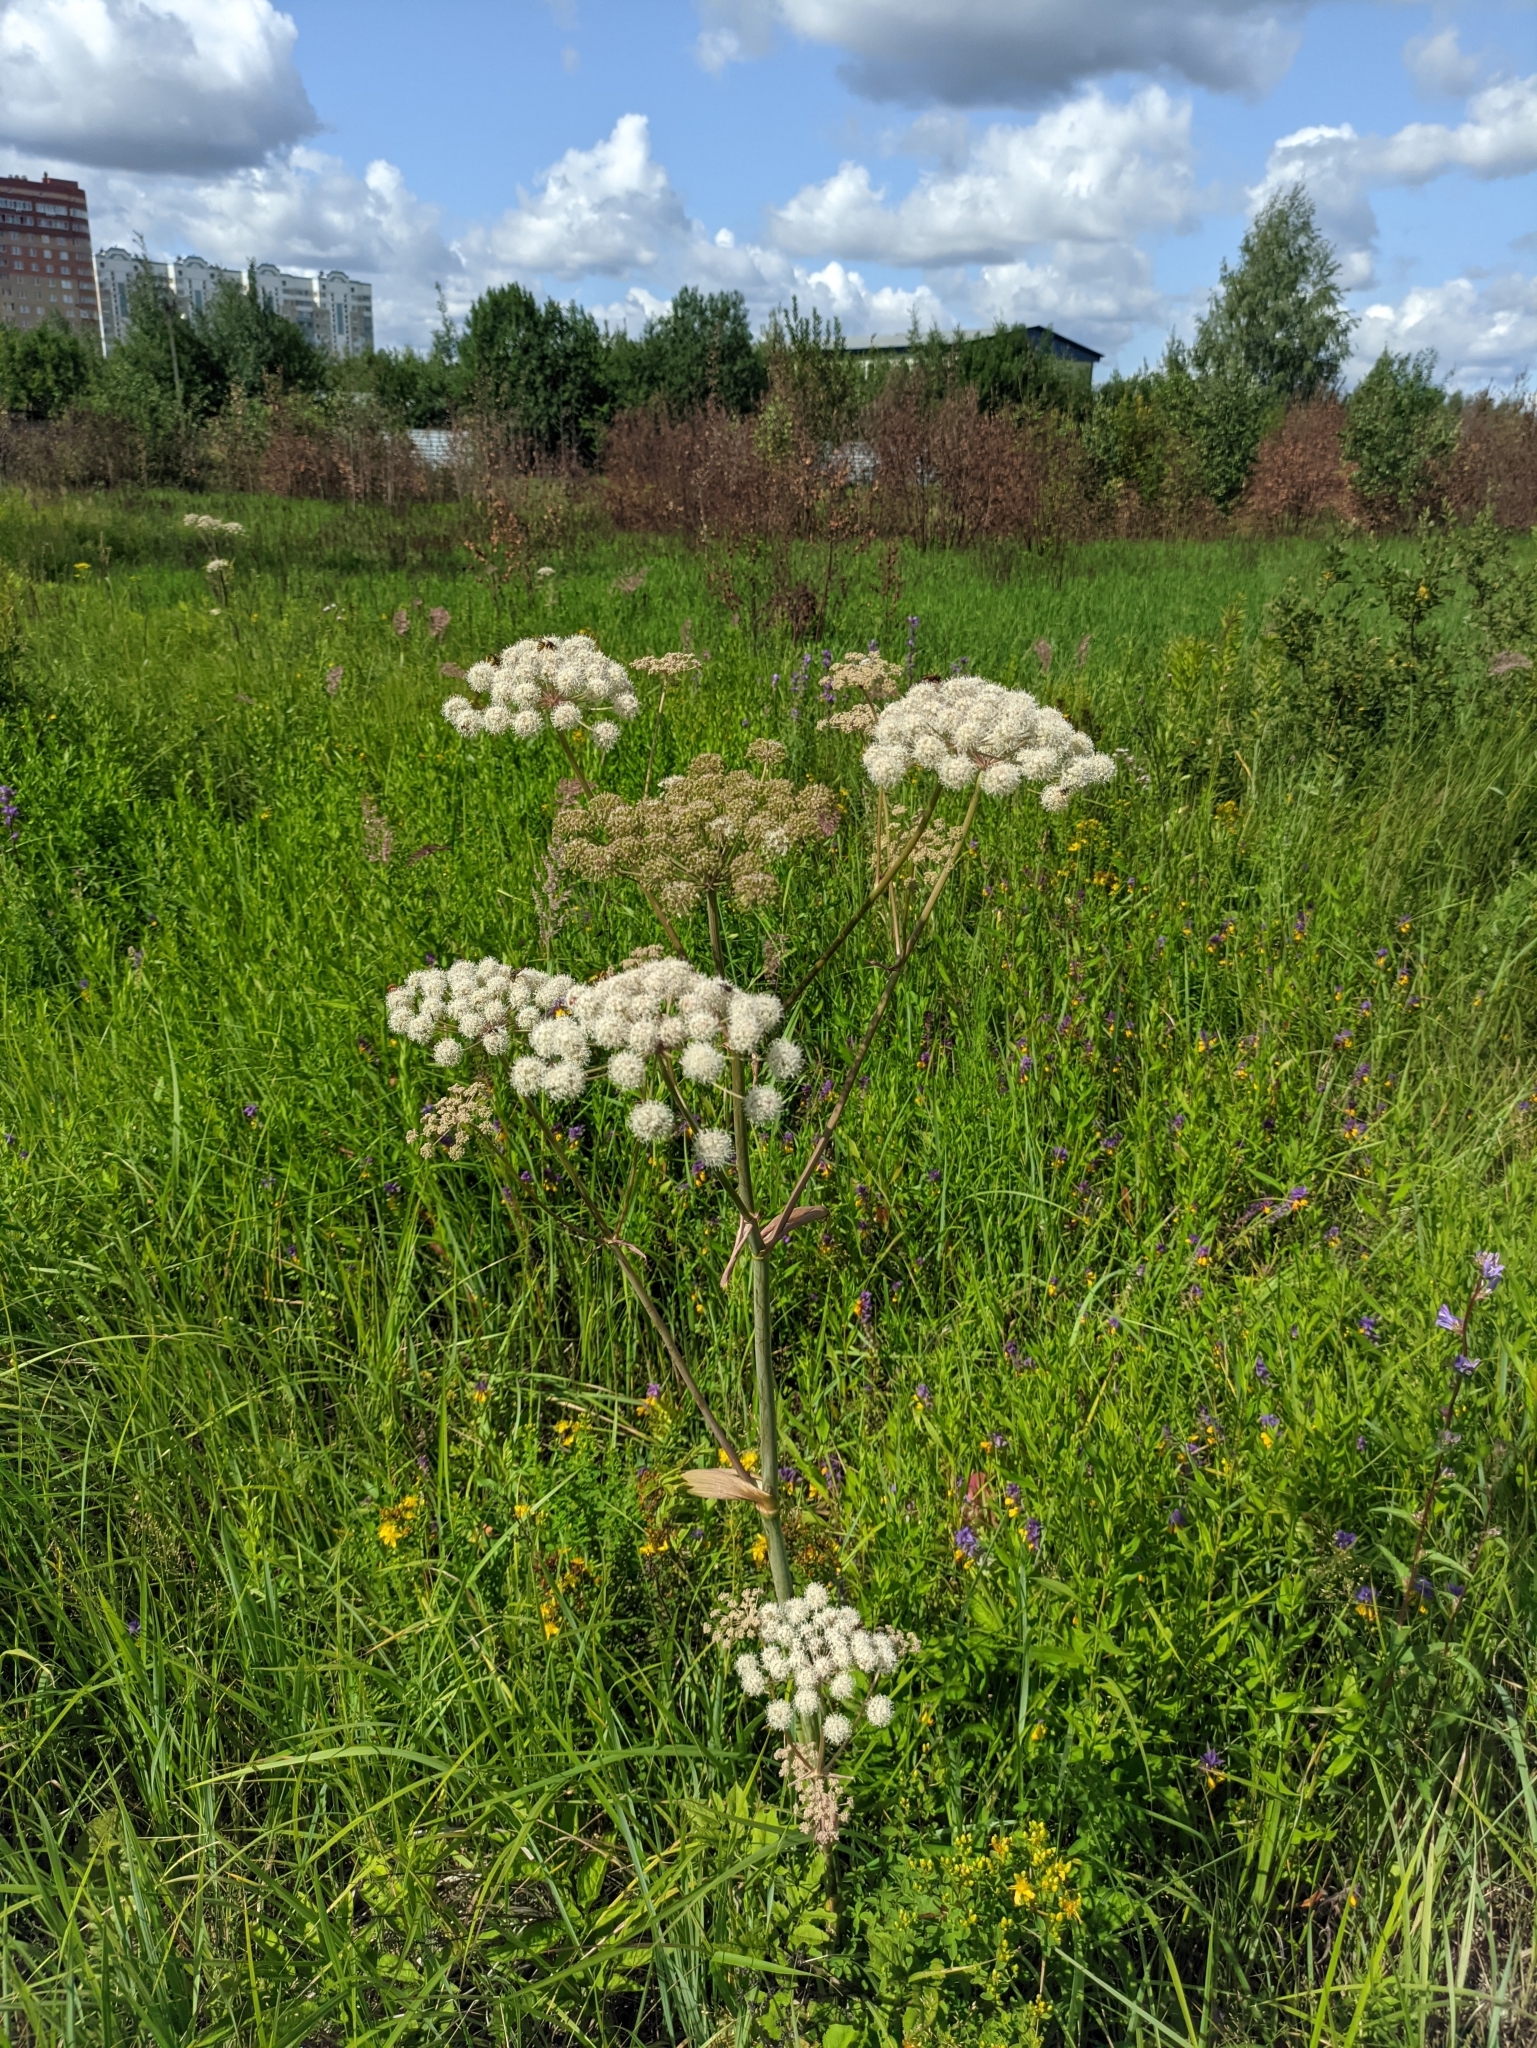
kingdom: Plantae
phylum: Tracheophyta
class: Magnoliopsida
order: Apiales
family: Apiaceae
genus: Angelica
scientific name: Angelica sylvestris
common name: Wild angelica
